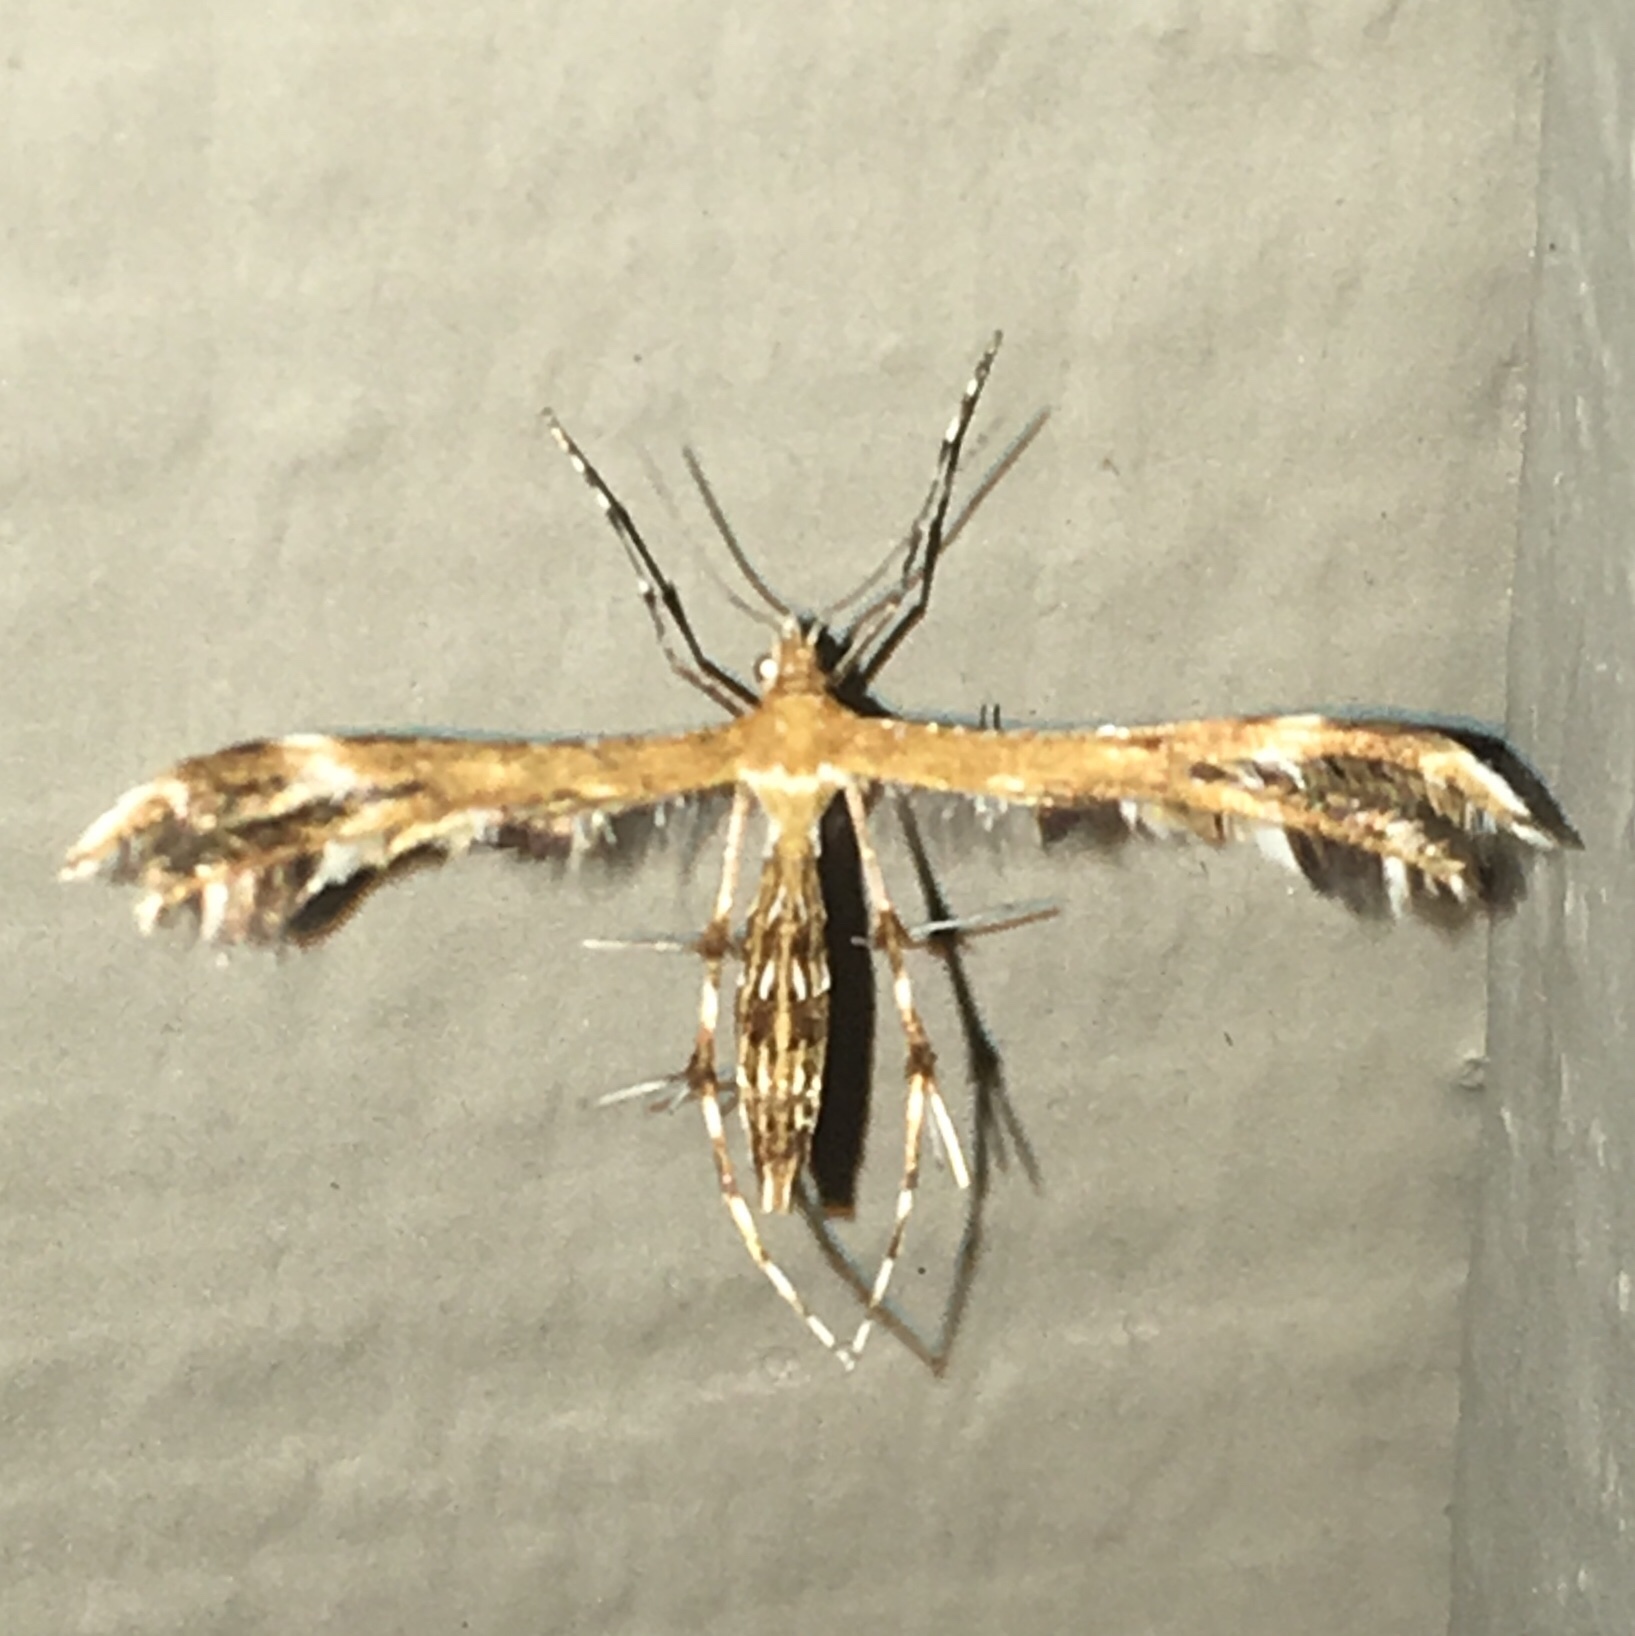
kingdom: Animalia
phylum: Arthropoda
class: Insecta
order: Lepidoptera
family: Pterophoridae
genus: Dejongia
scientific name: Dejongia lobidactylus
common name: Lobed plume moth
